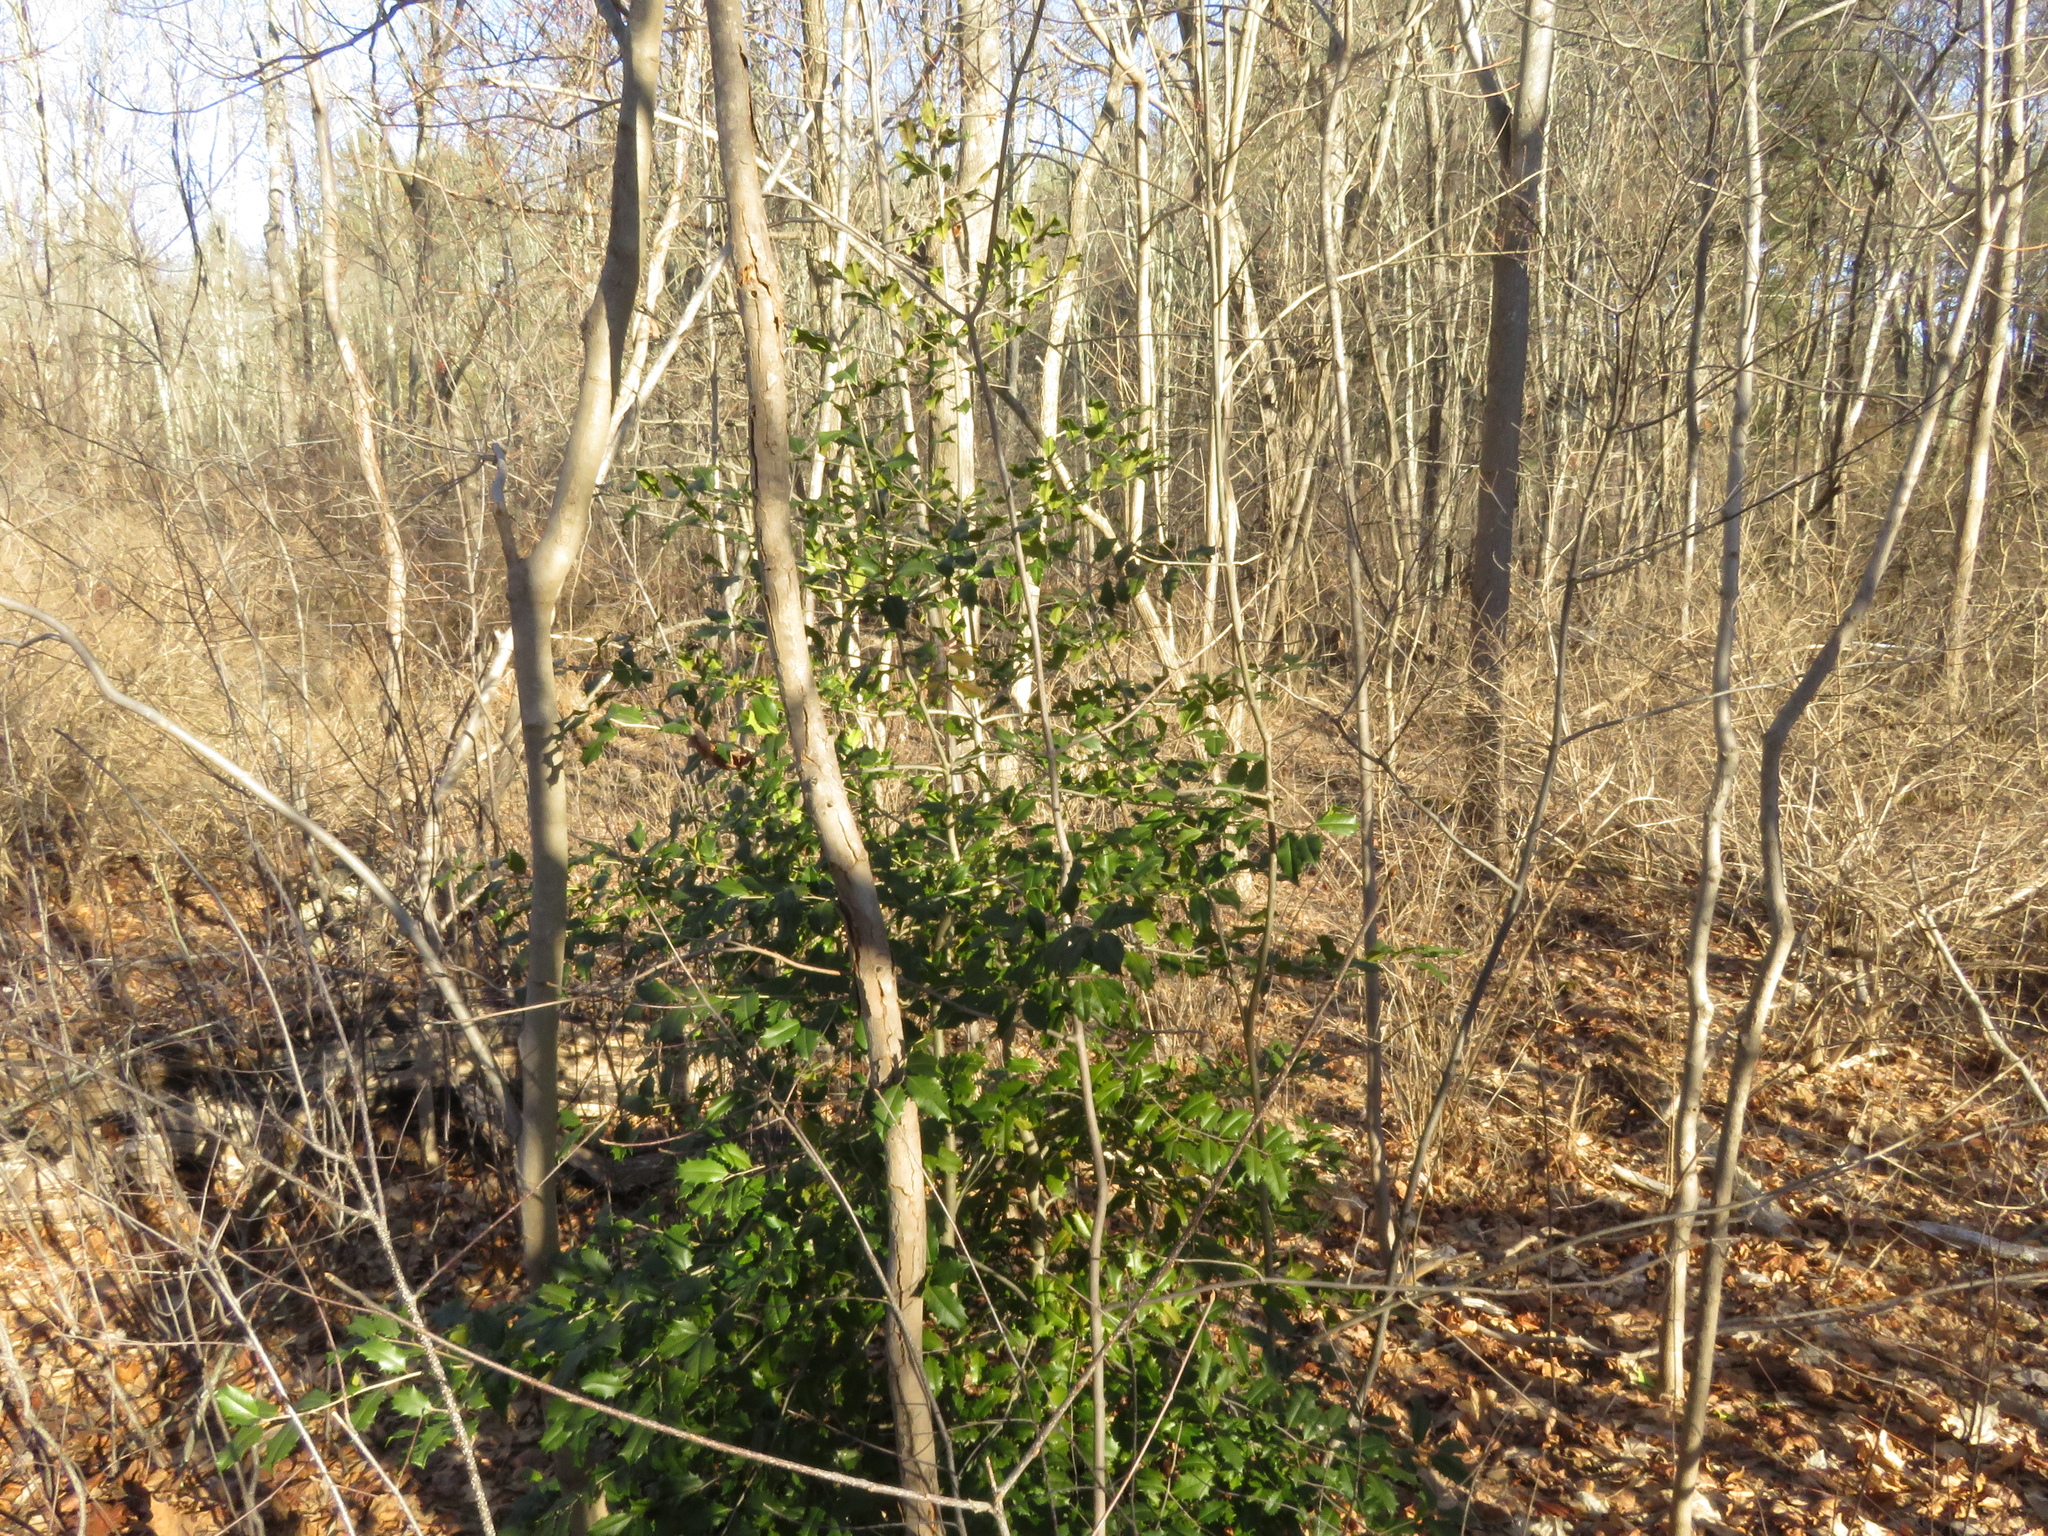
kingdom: Plantae
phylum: Tracheophyta
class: Magnoliopsida
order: Aquifoliales
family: Aquifoliaceae
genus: Ilex
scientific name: Ilex opaca
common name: American holly
